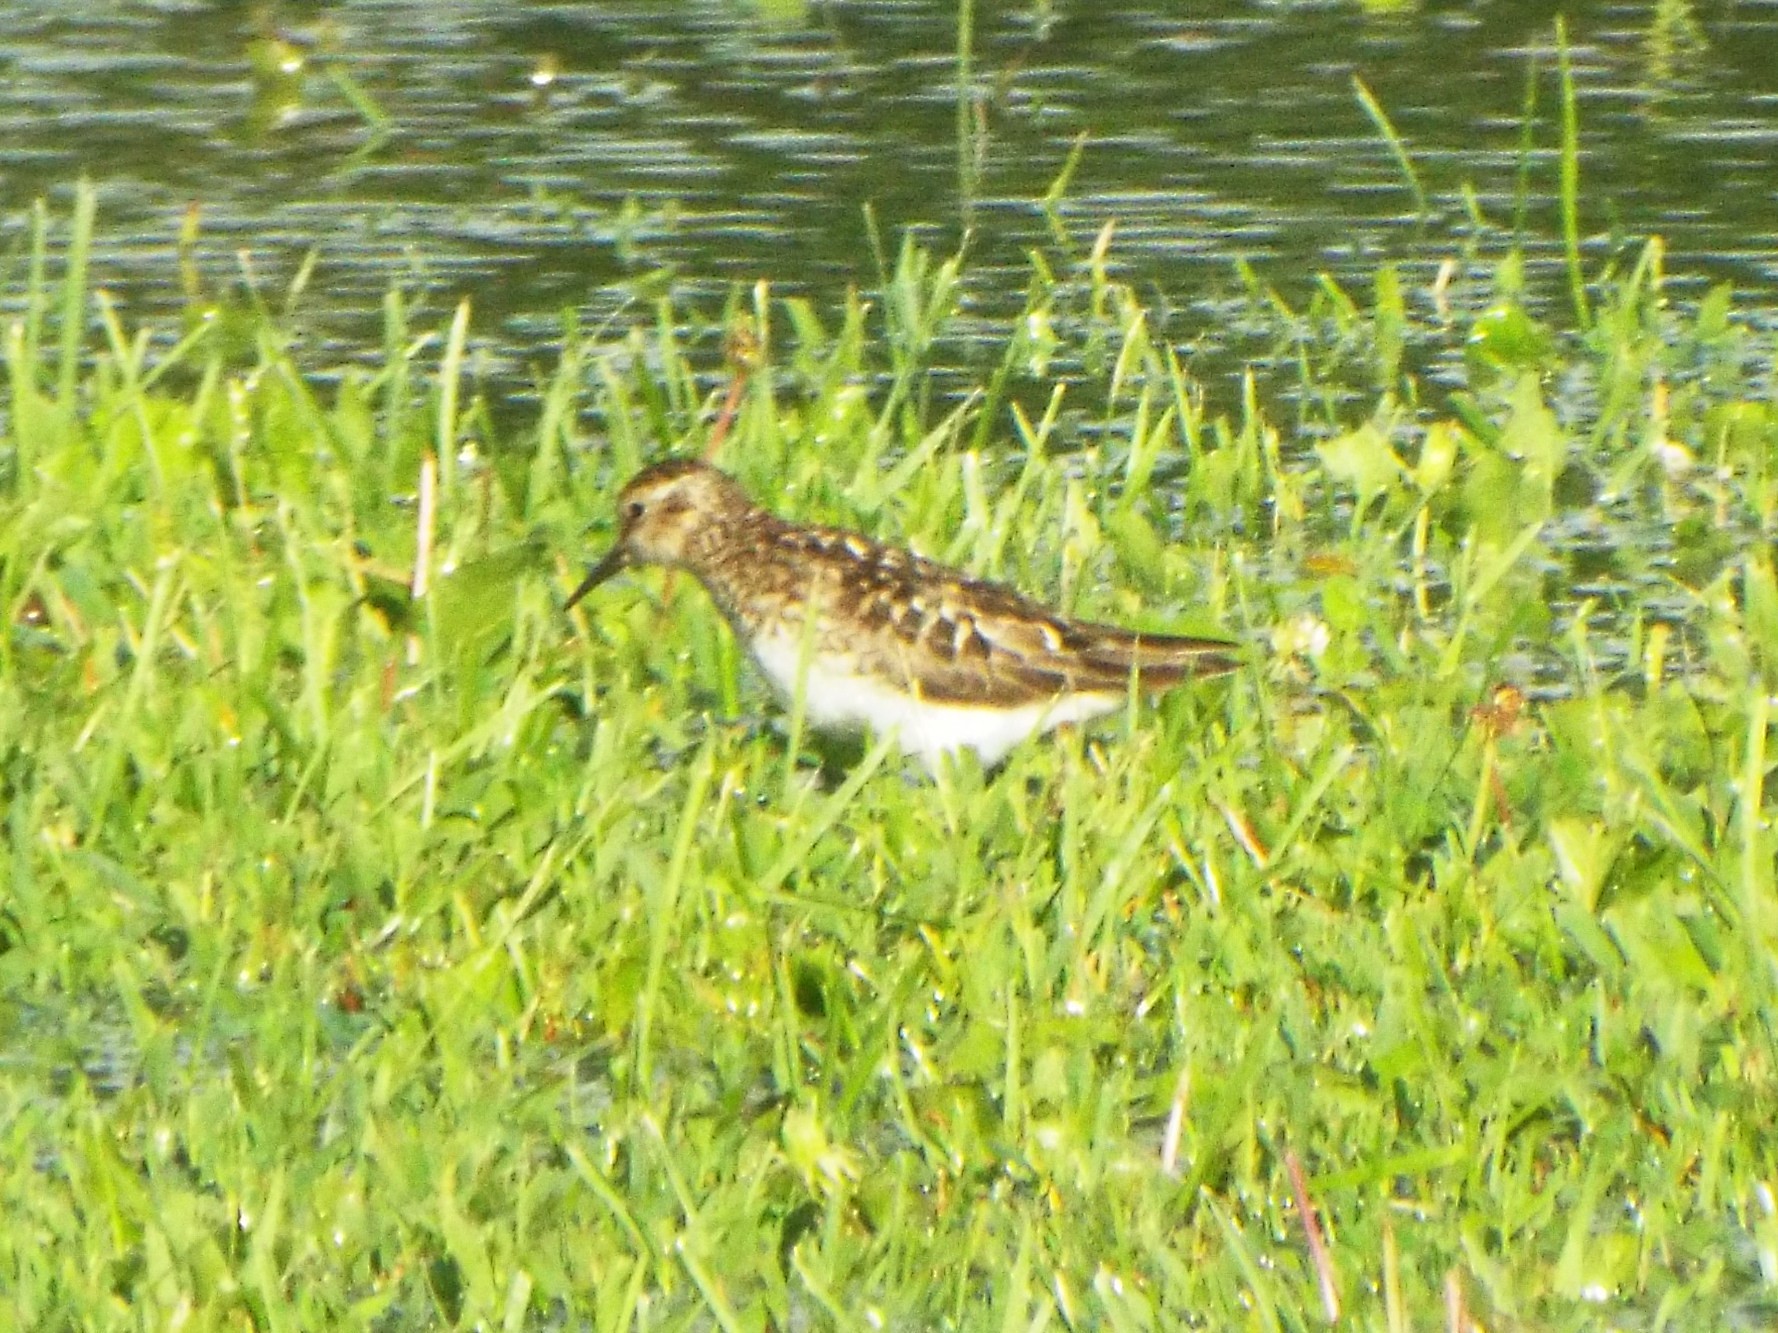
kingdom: Animalia
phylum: Chordata
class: Aves
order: Charadriiformes
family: Scolopacidae
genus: Calidris
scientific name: Calidris minutilla
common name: Least sandpiper
